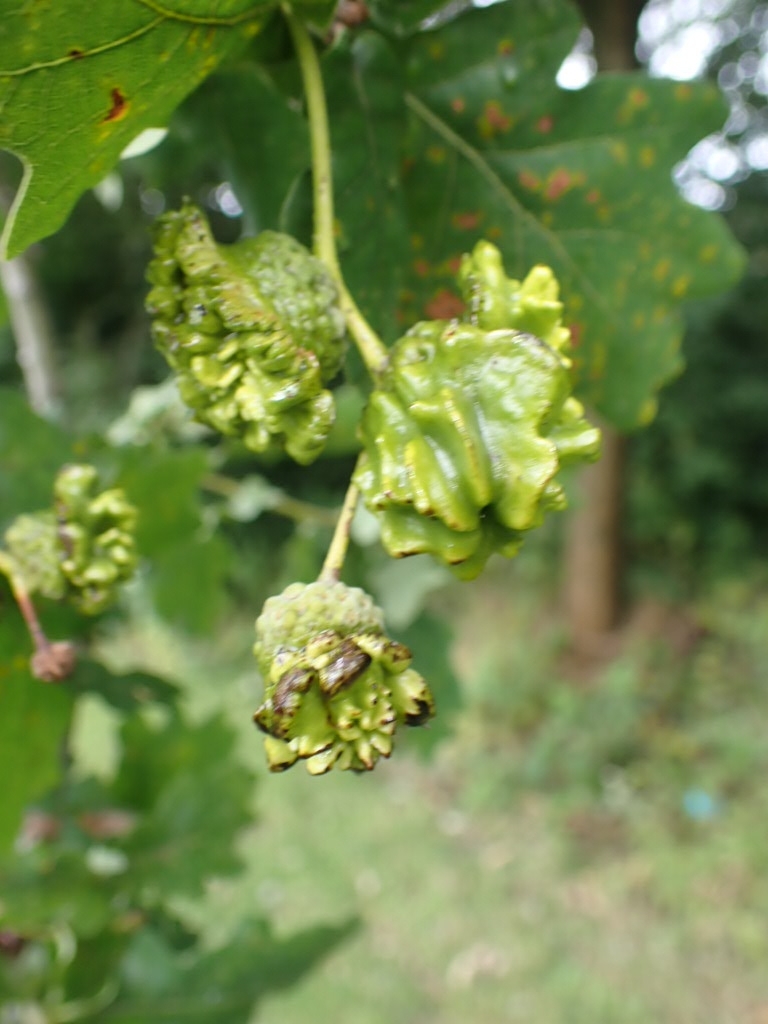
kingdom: Animalia
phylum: Arthropoda
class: Insecta
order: Hymenoptera
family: Cynipidae
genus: Andricus
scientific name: Andricus quercuscalicis
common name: Knopper gall
